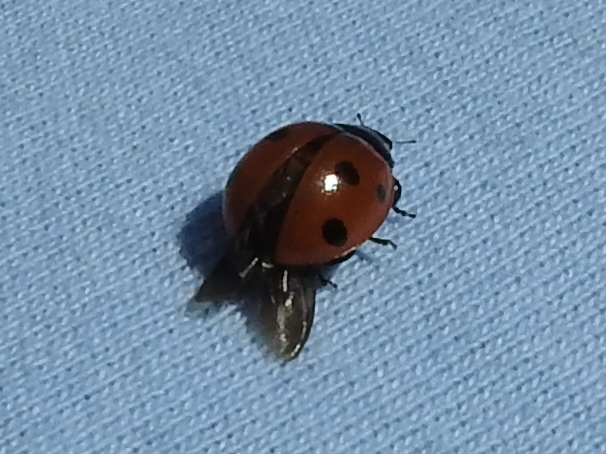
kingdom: Animalia
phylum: Arthropoda
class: Insecta
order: Coleoptera
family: Coccinellidae
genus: Coccinella
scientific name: Coccinella septempunctata
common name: Sevenspotted lady beetle
